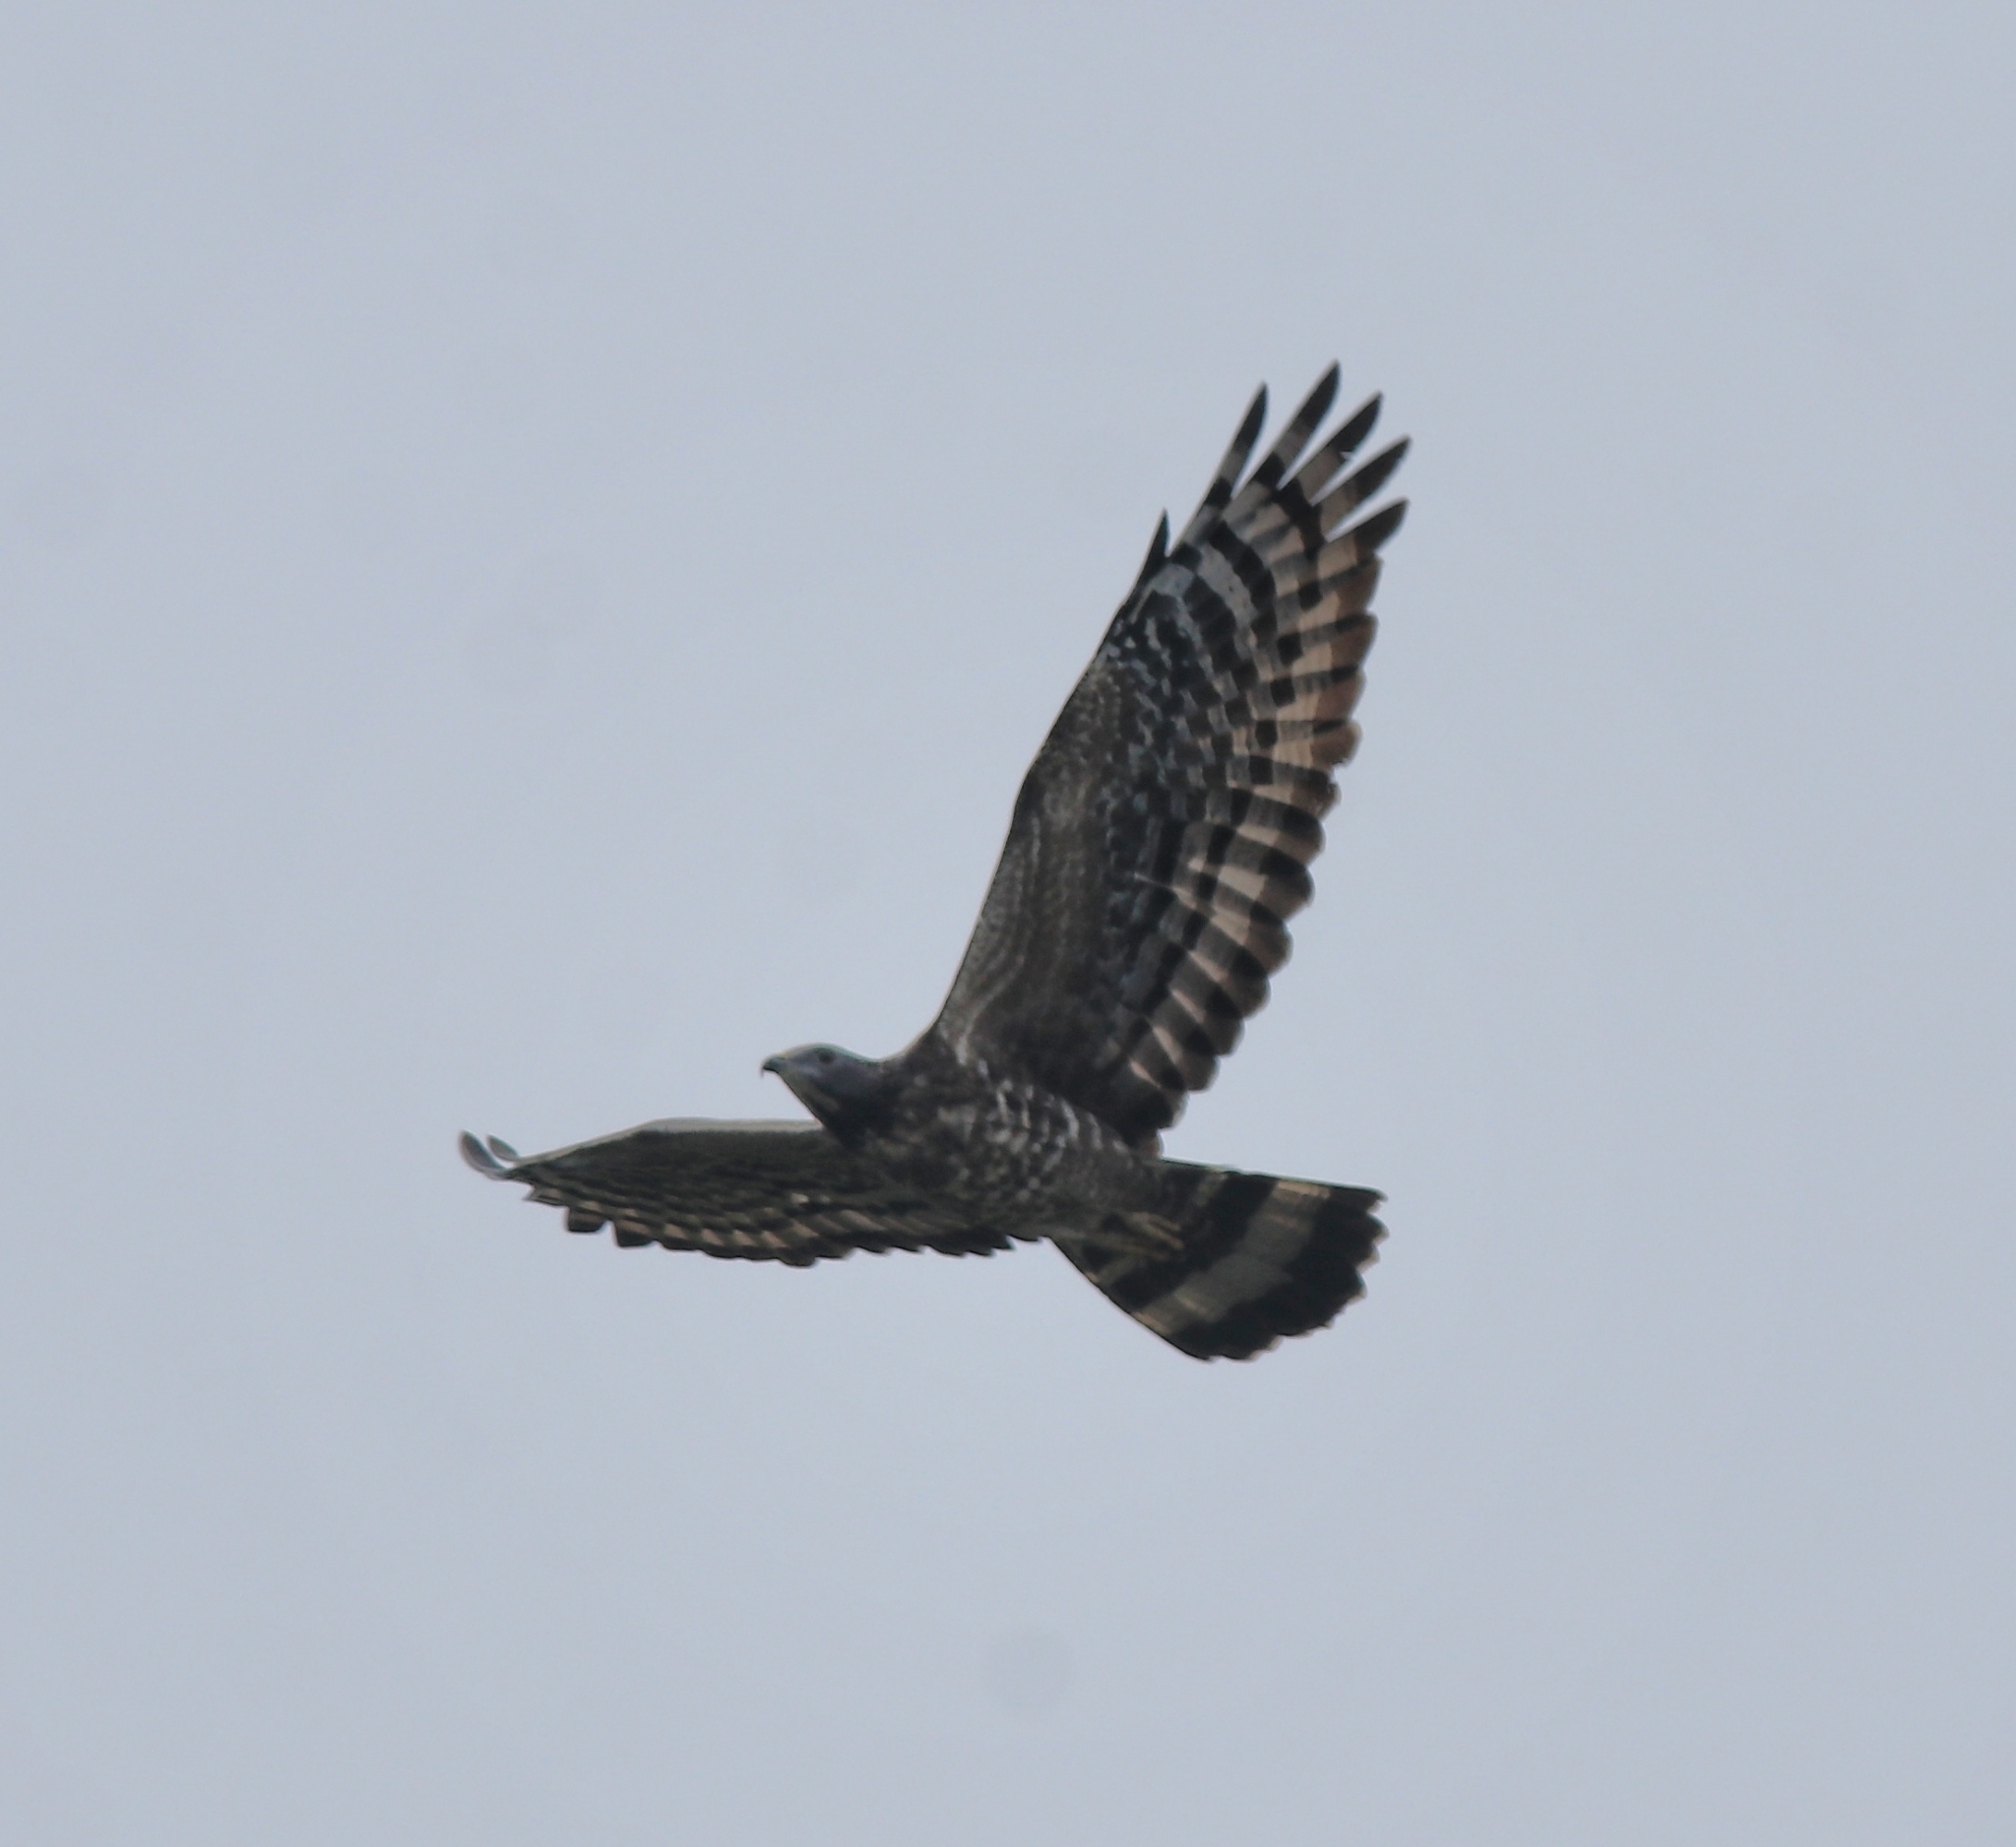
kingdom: Animalia
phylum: Chordata
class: Aves
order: Accipitriformes
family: Accipitridae
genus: Pernis
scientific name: Pernis ptilorhynchus
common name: Crested honey buzzard
